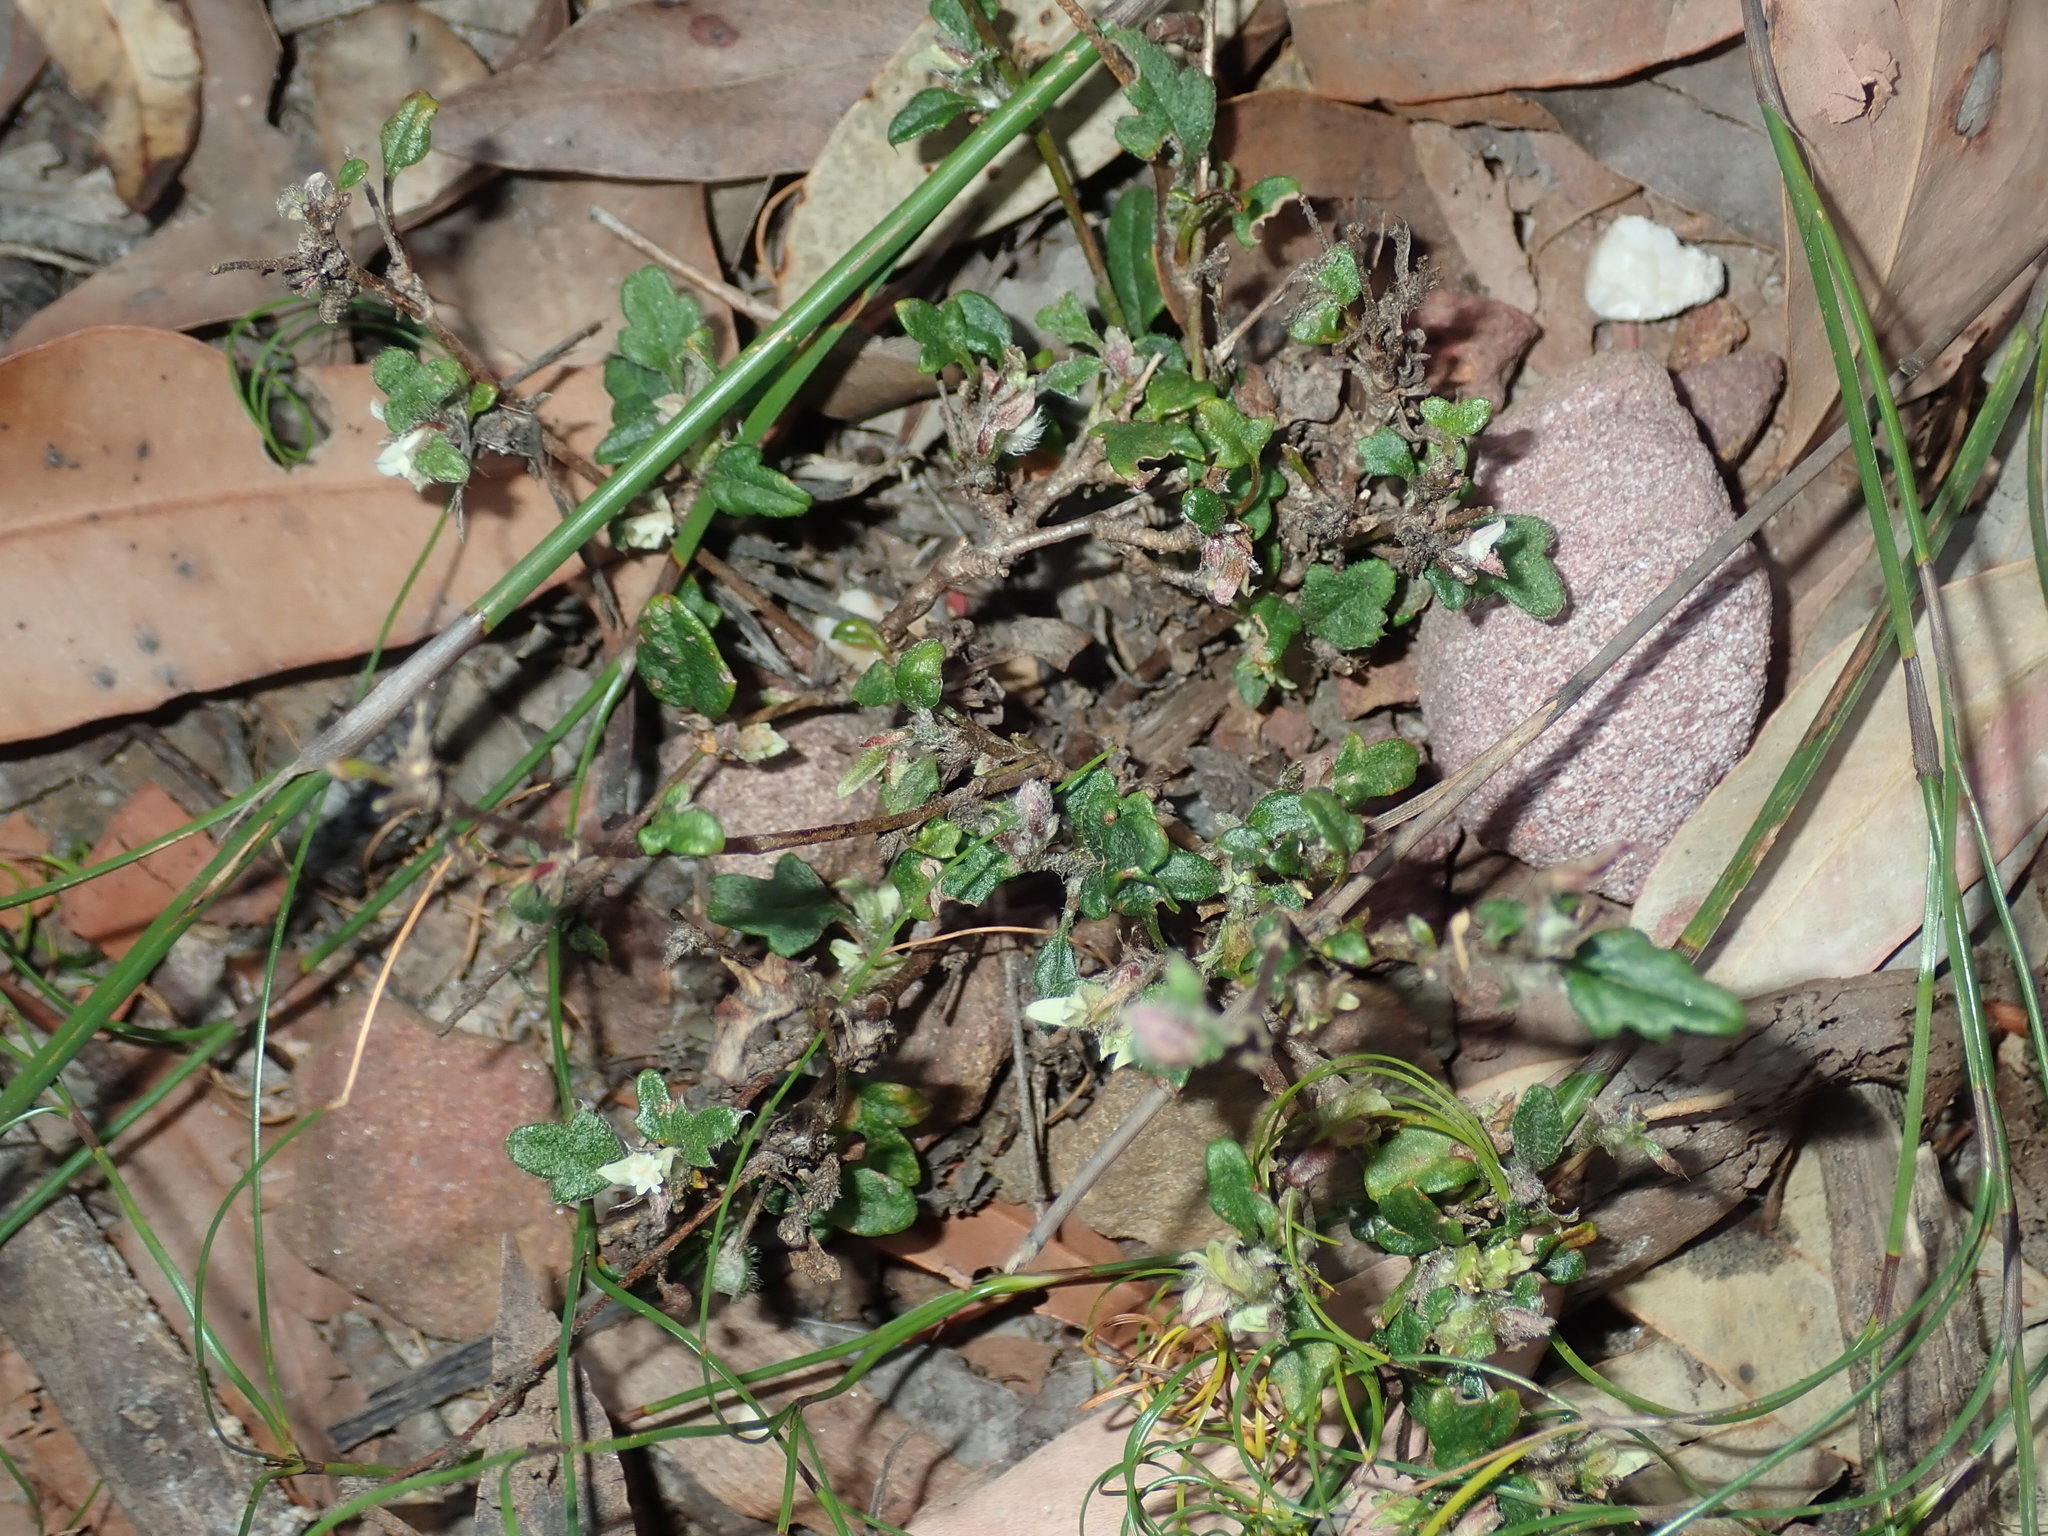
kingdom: Plantae
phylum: Tracheophyta
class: Magnoliopsida
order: Apiales
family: Apiaceae
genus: Xanthosia
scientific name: Xanthosia pilosa
